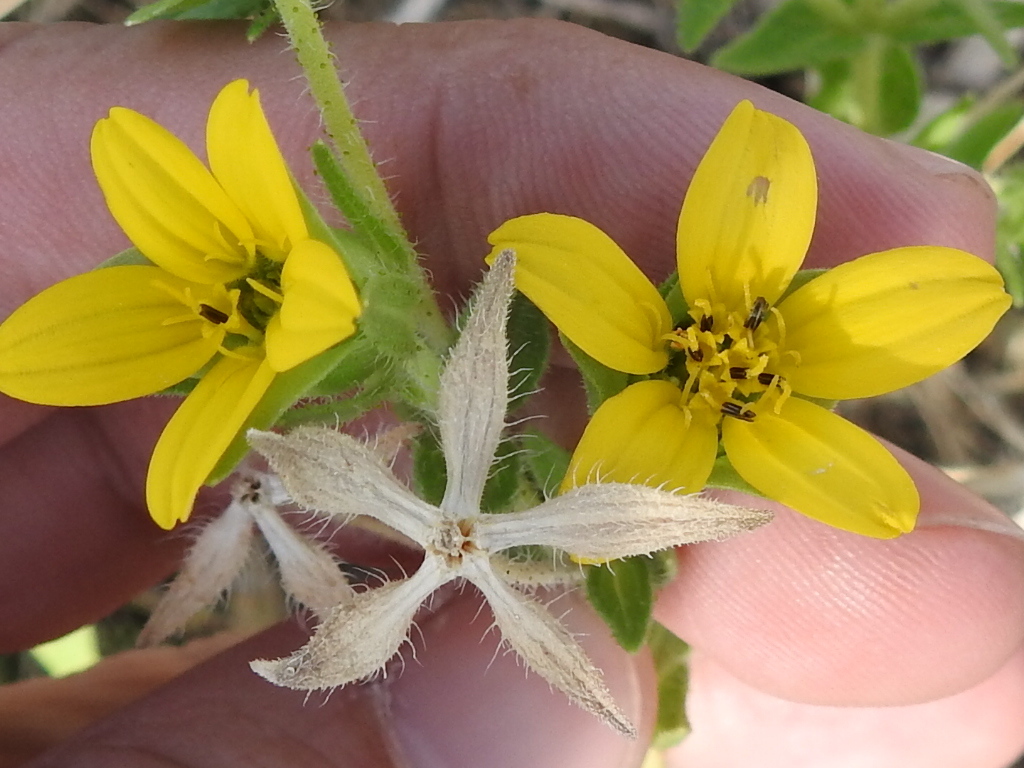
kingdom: Plantae
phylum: Tracheophyta
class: Magnoliopsida
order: Asterales
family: Asteraceae
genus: Lindheimera
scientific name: Lindheimera texana
